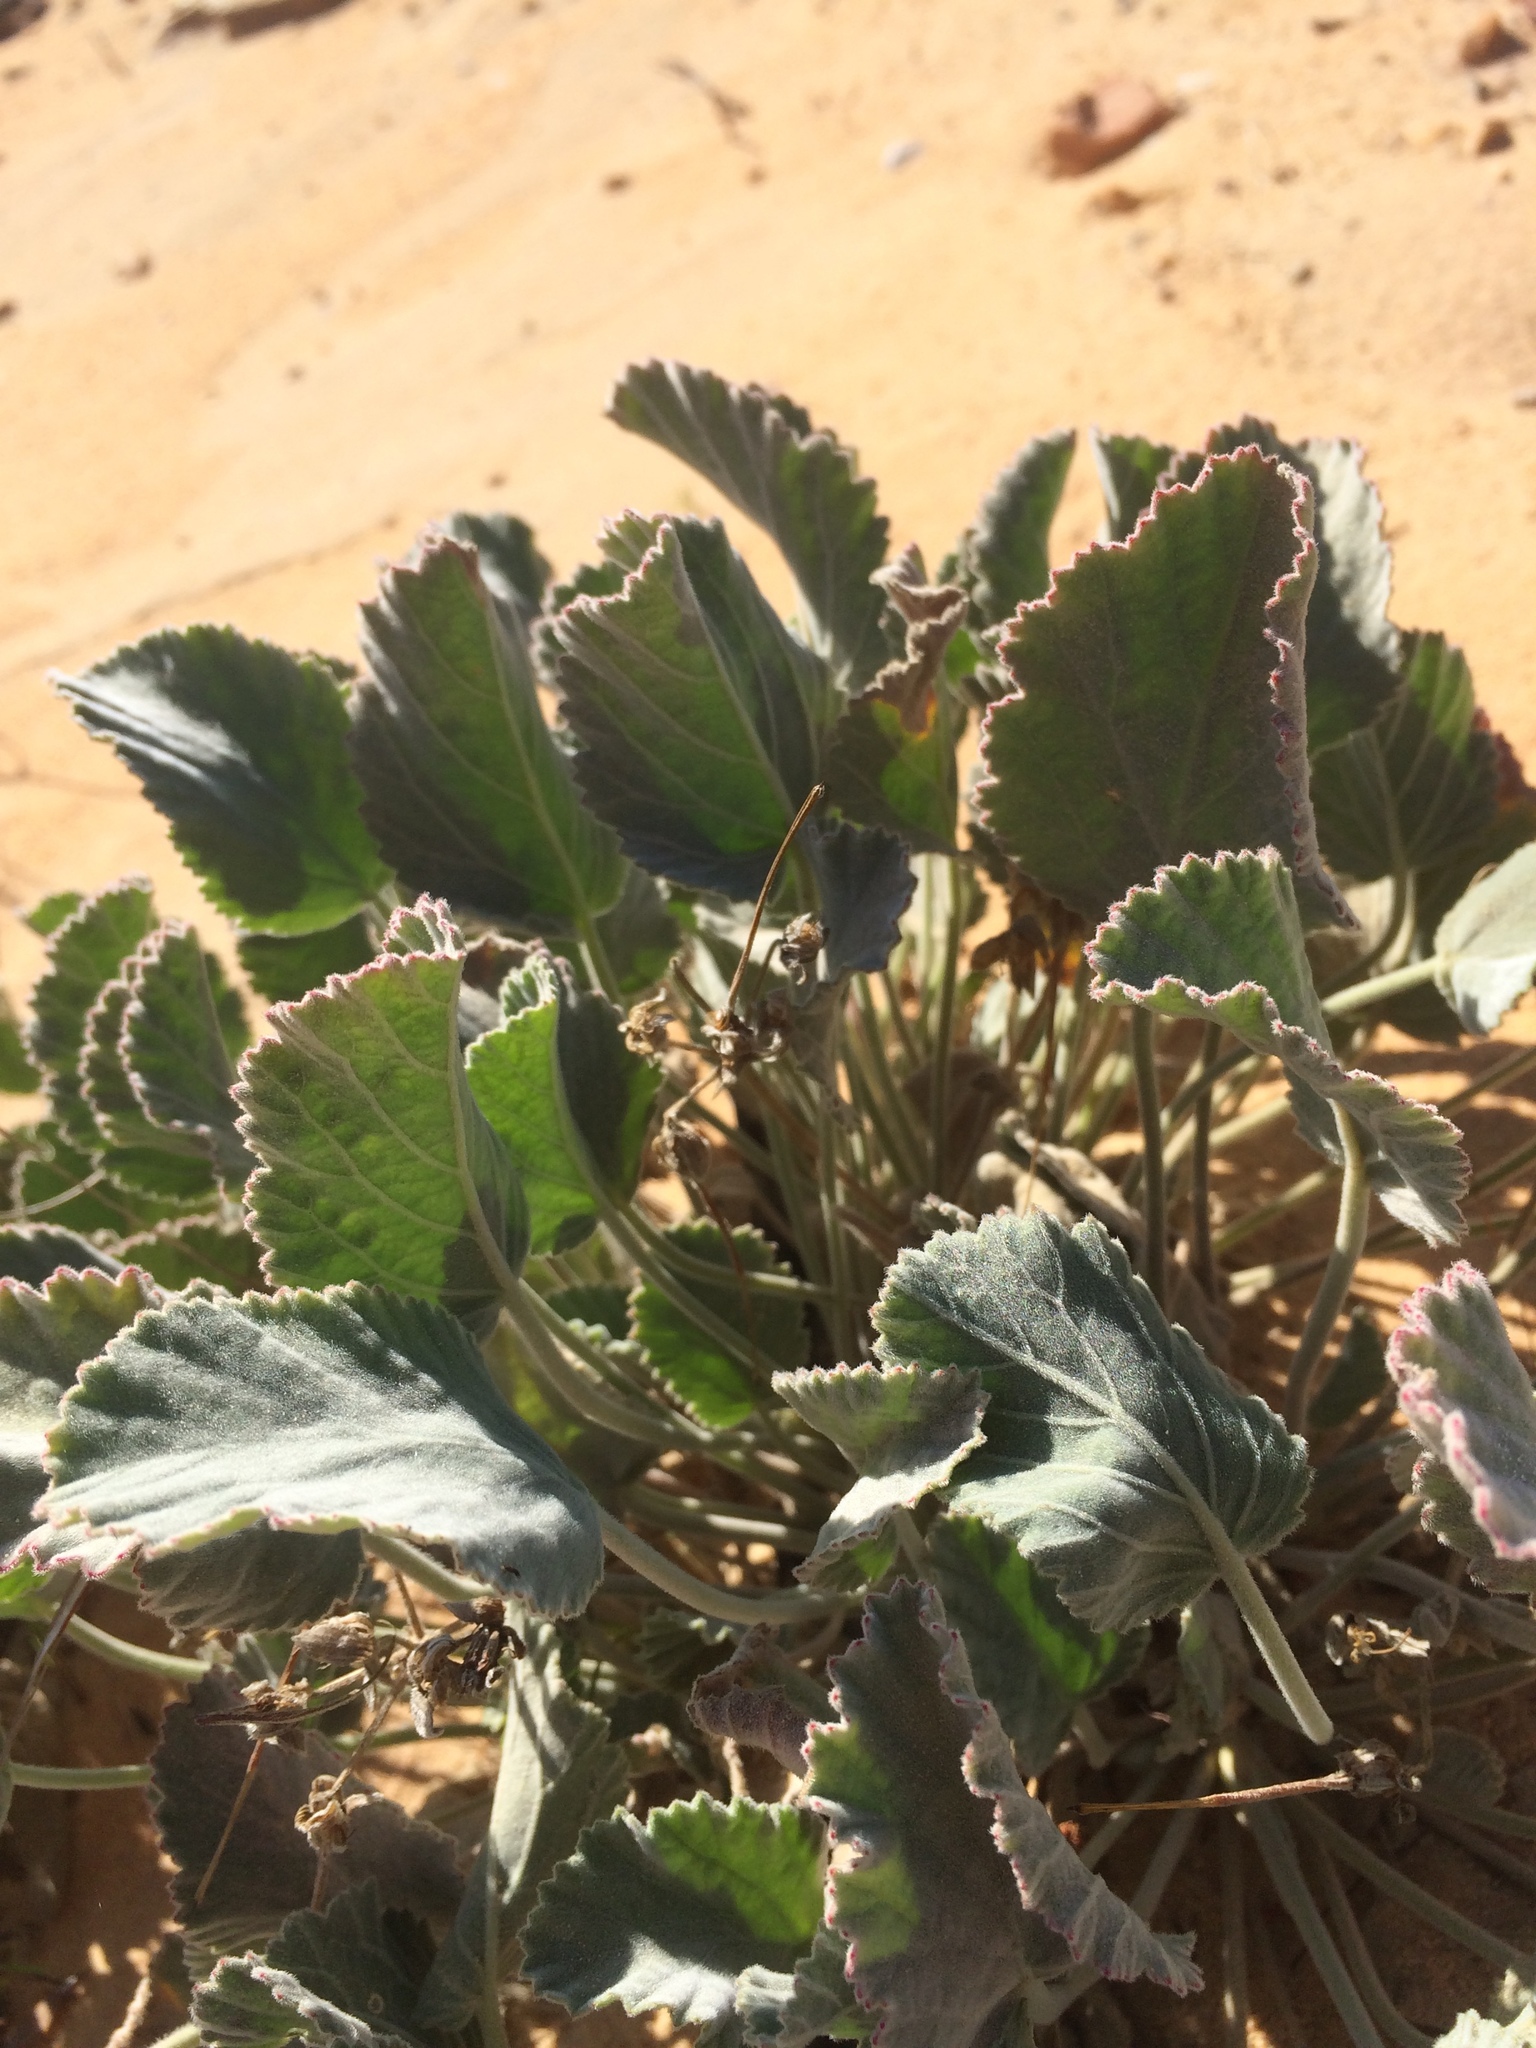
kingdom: Plantae
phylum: Tracheophyta
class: Magnoliopsida
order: Geraniales
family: Geraniaceae
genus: Pelargonium
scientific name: Pelargonium ovale
